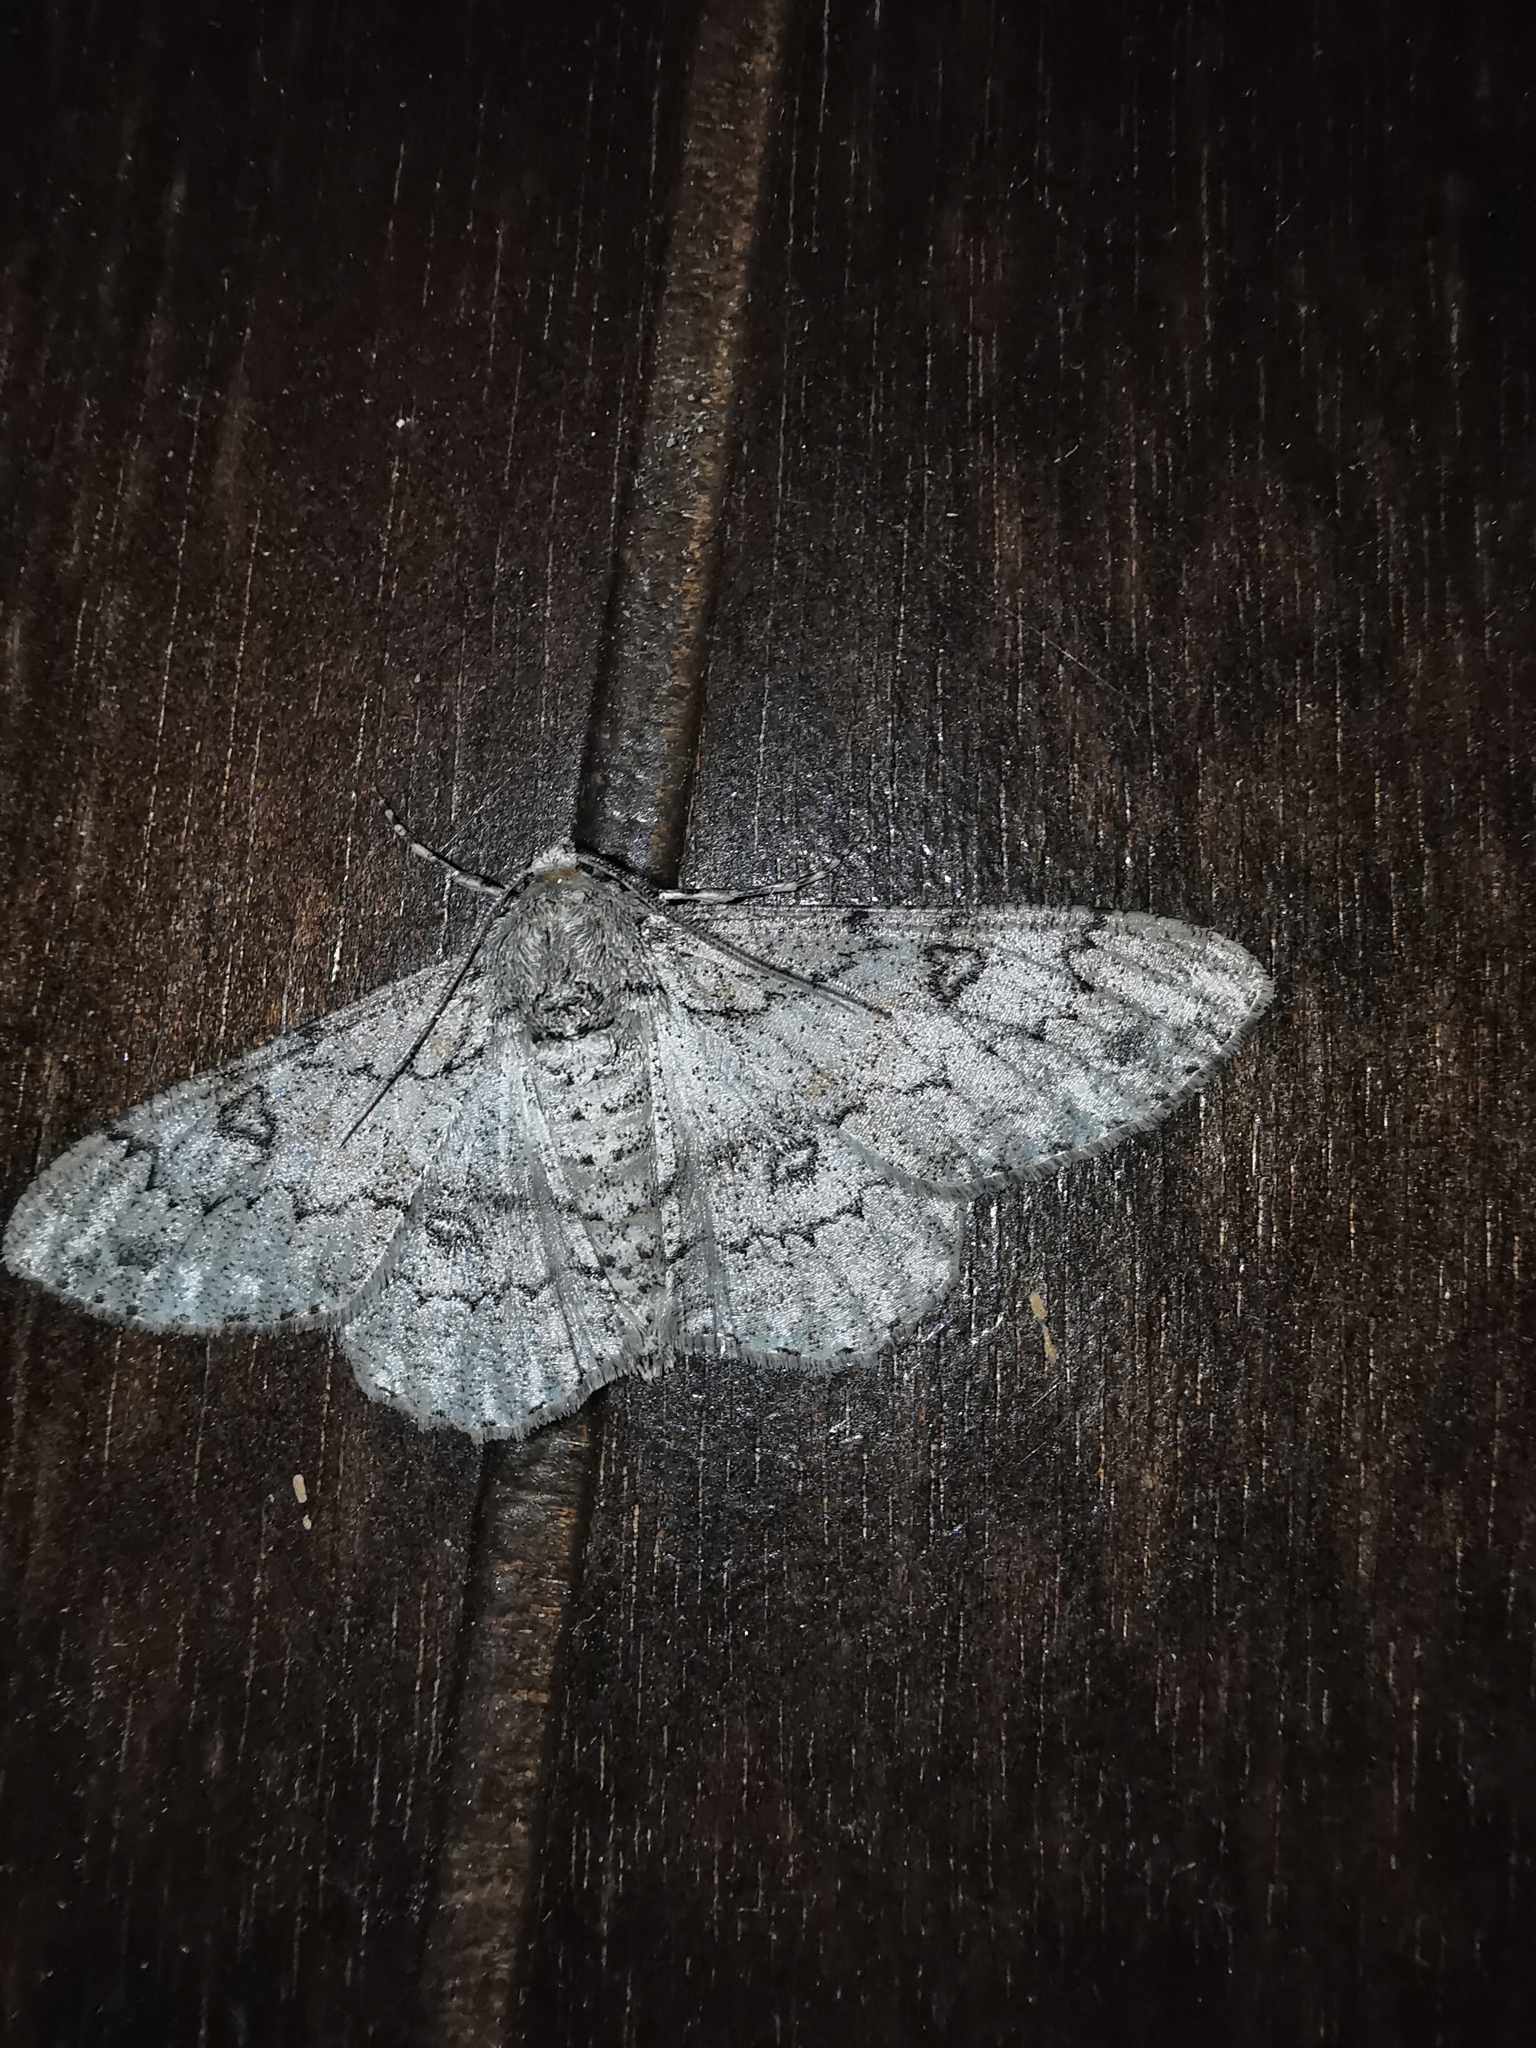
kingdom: Animalia
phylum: Arthropoda
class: Insecta
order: Lepidoptera
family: Geometridae
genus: Ascotis
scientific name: Ascotis selenaria
